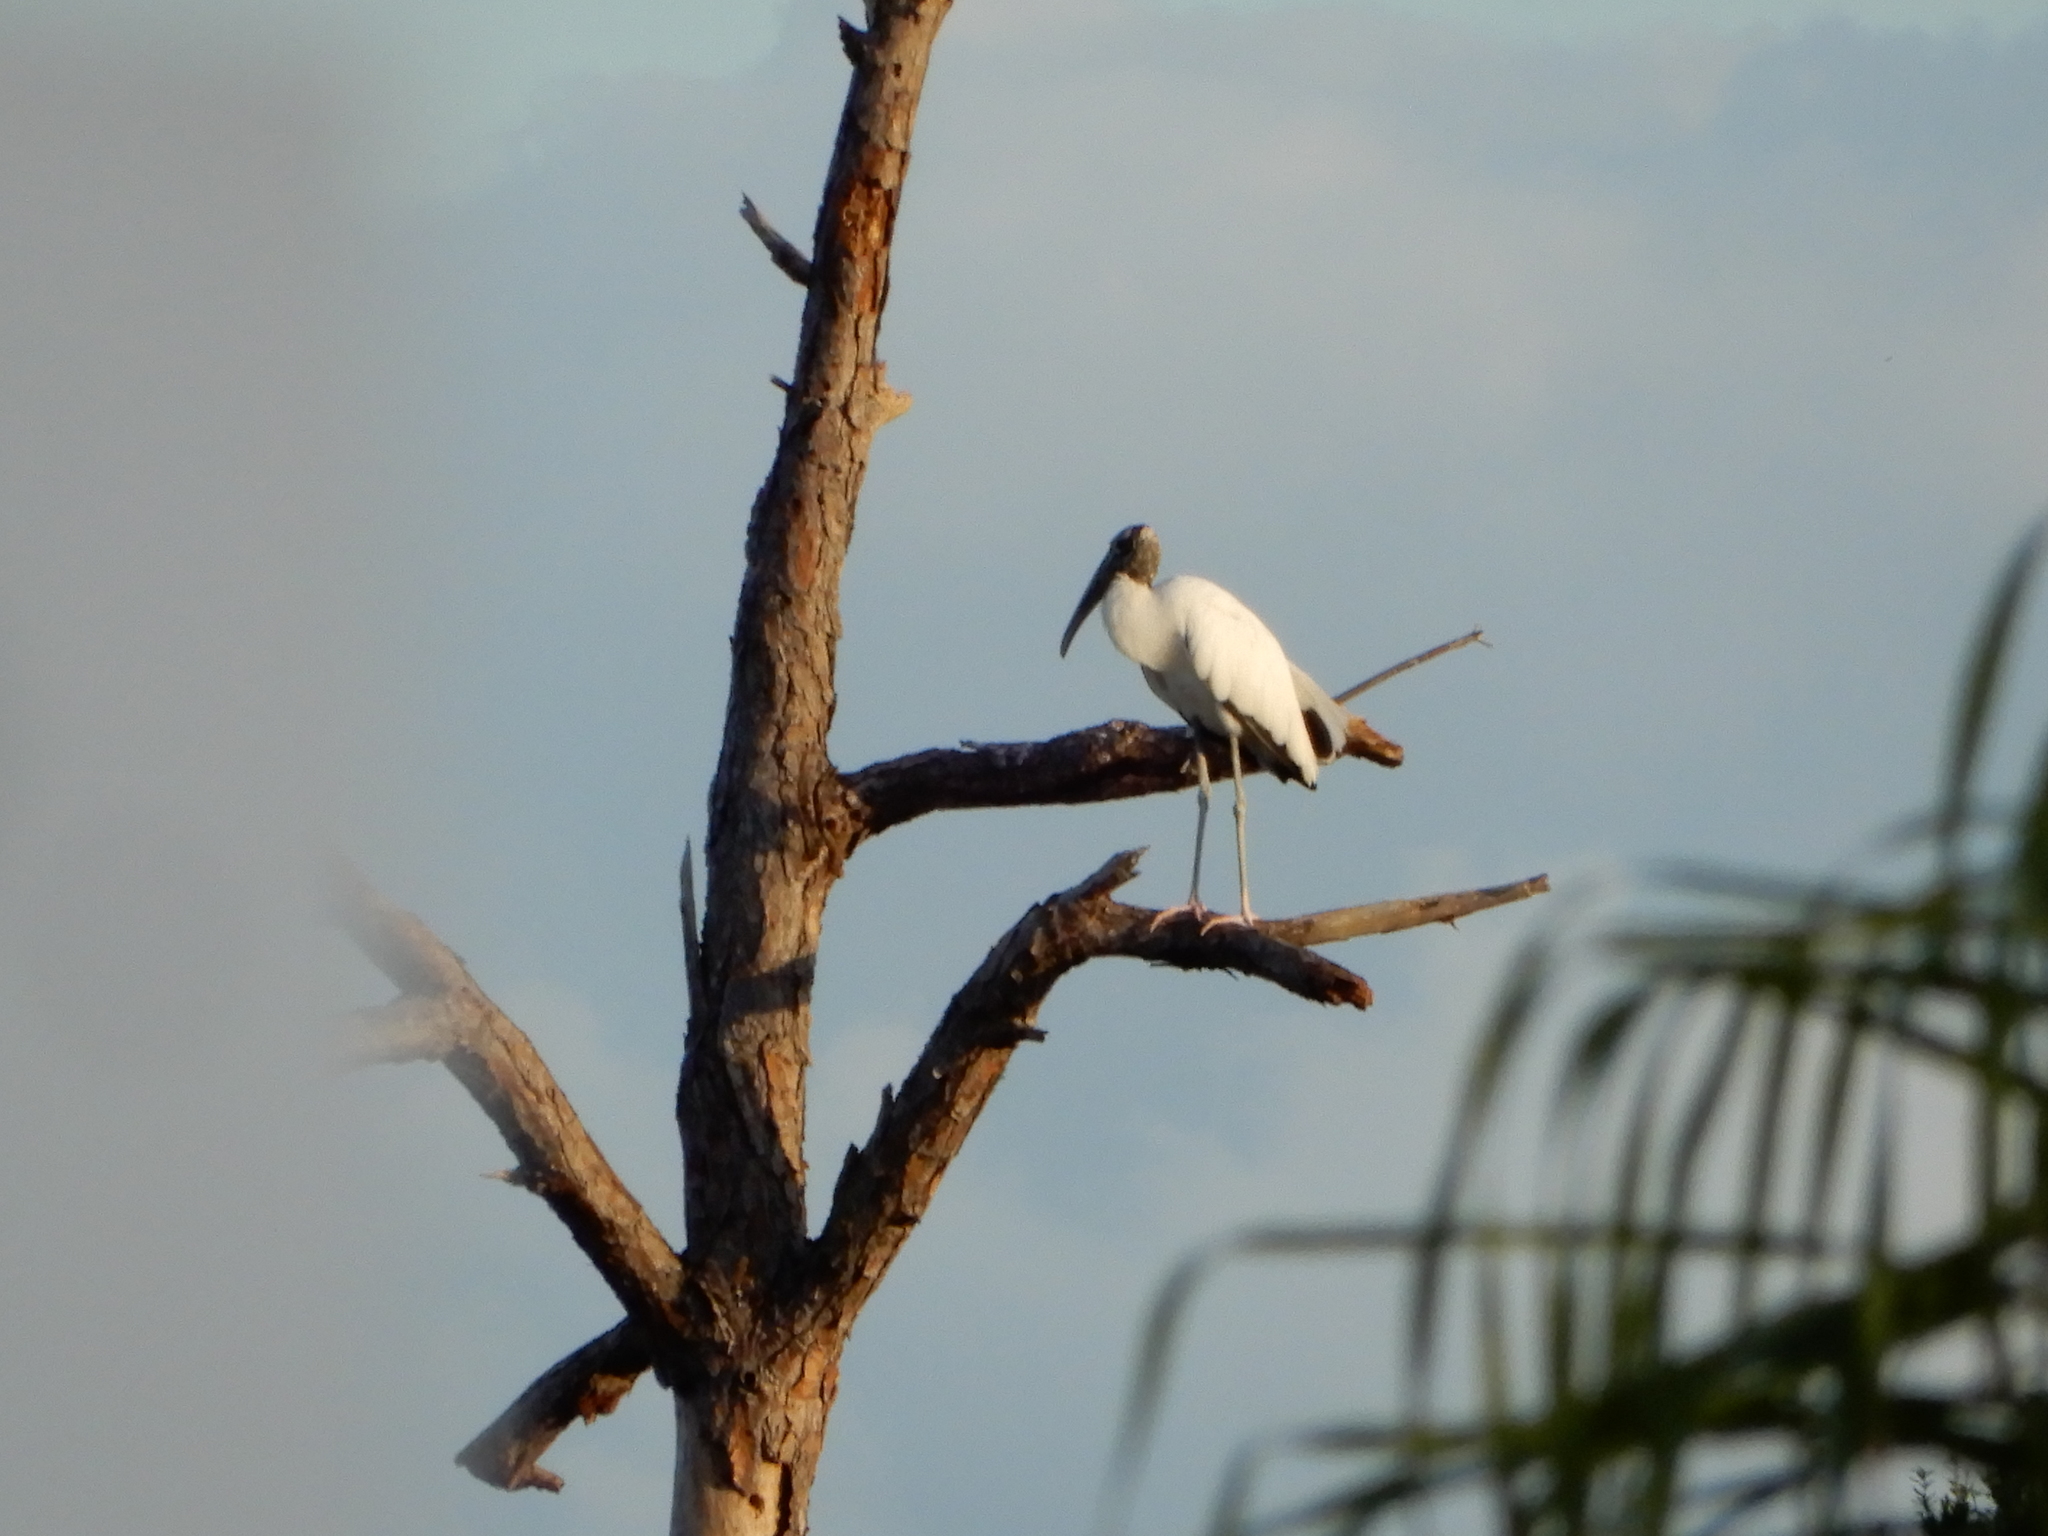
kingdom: Animalia
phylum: Chordata
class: Aves
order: Ciconiiformes
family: Ciconiidae
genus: Mycteria
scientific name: Mycteria americana
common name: Wood stork
